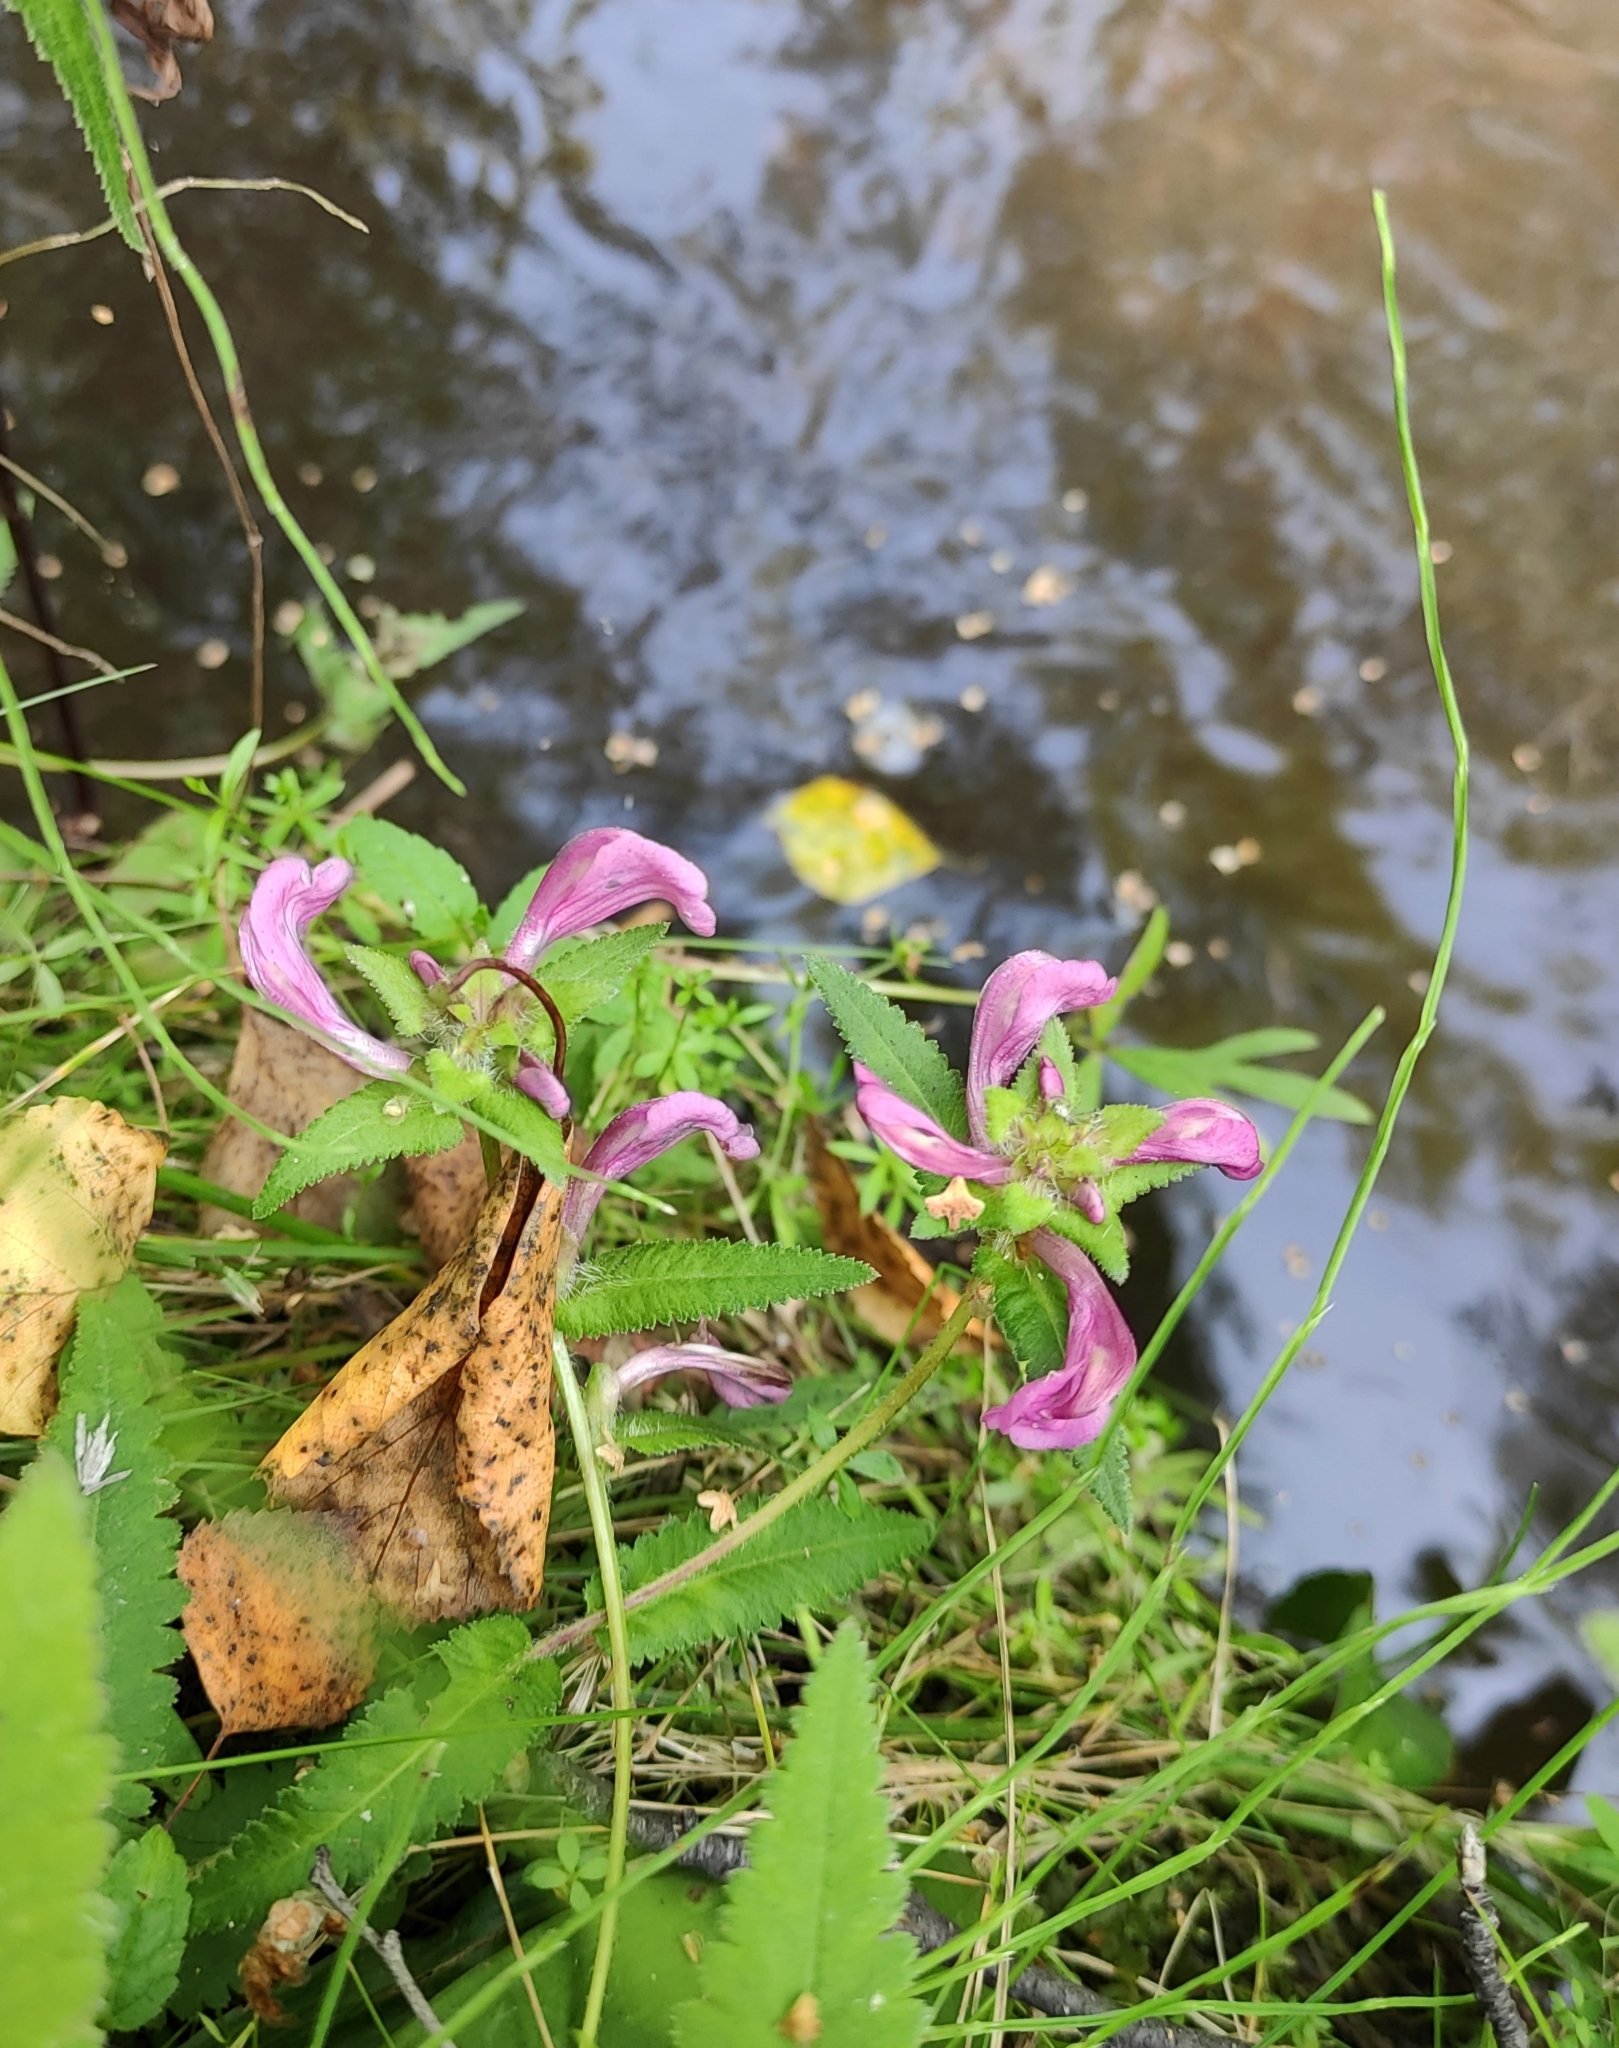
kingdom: Plantae
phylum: Tracheophyta
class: Magnoliopsida
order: Lamiales
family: Orobanchaceae
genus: Pedicularis
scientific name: Pedicularis resupinata
